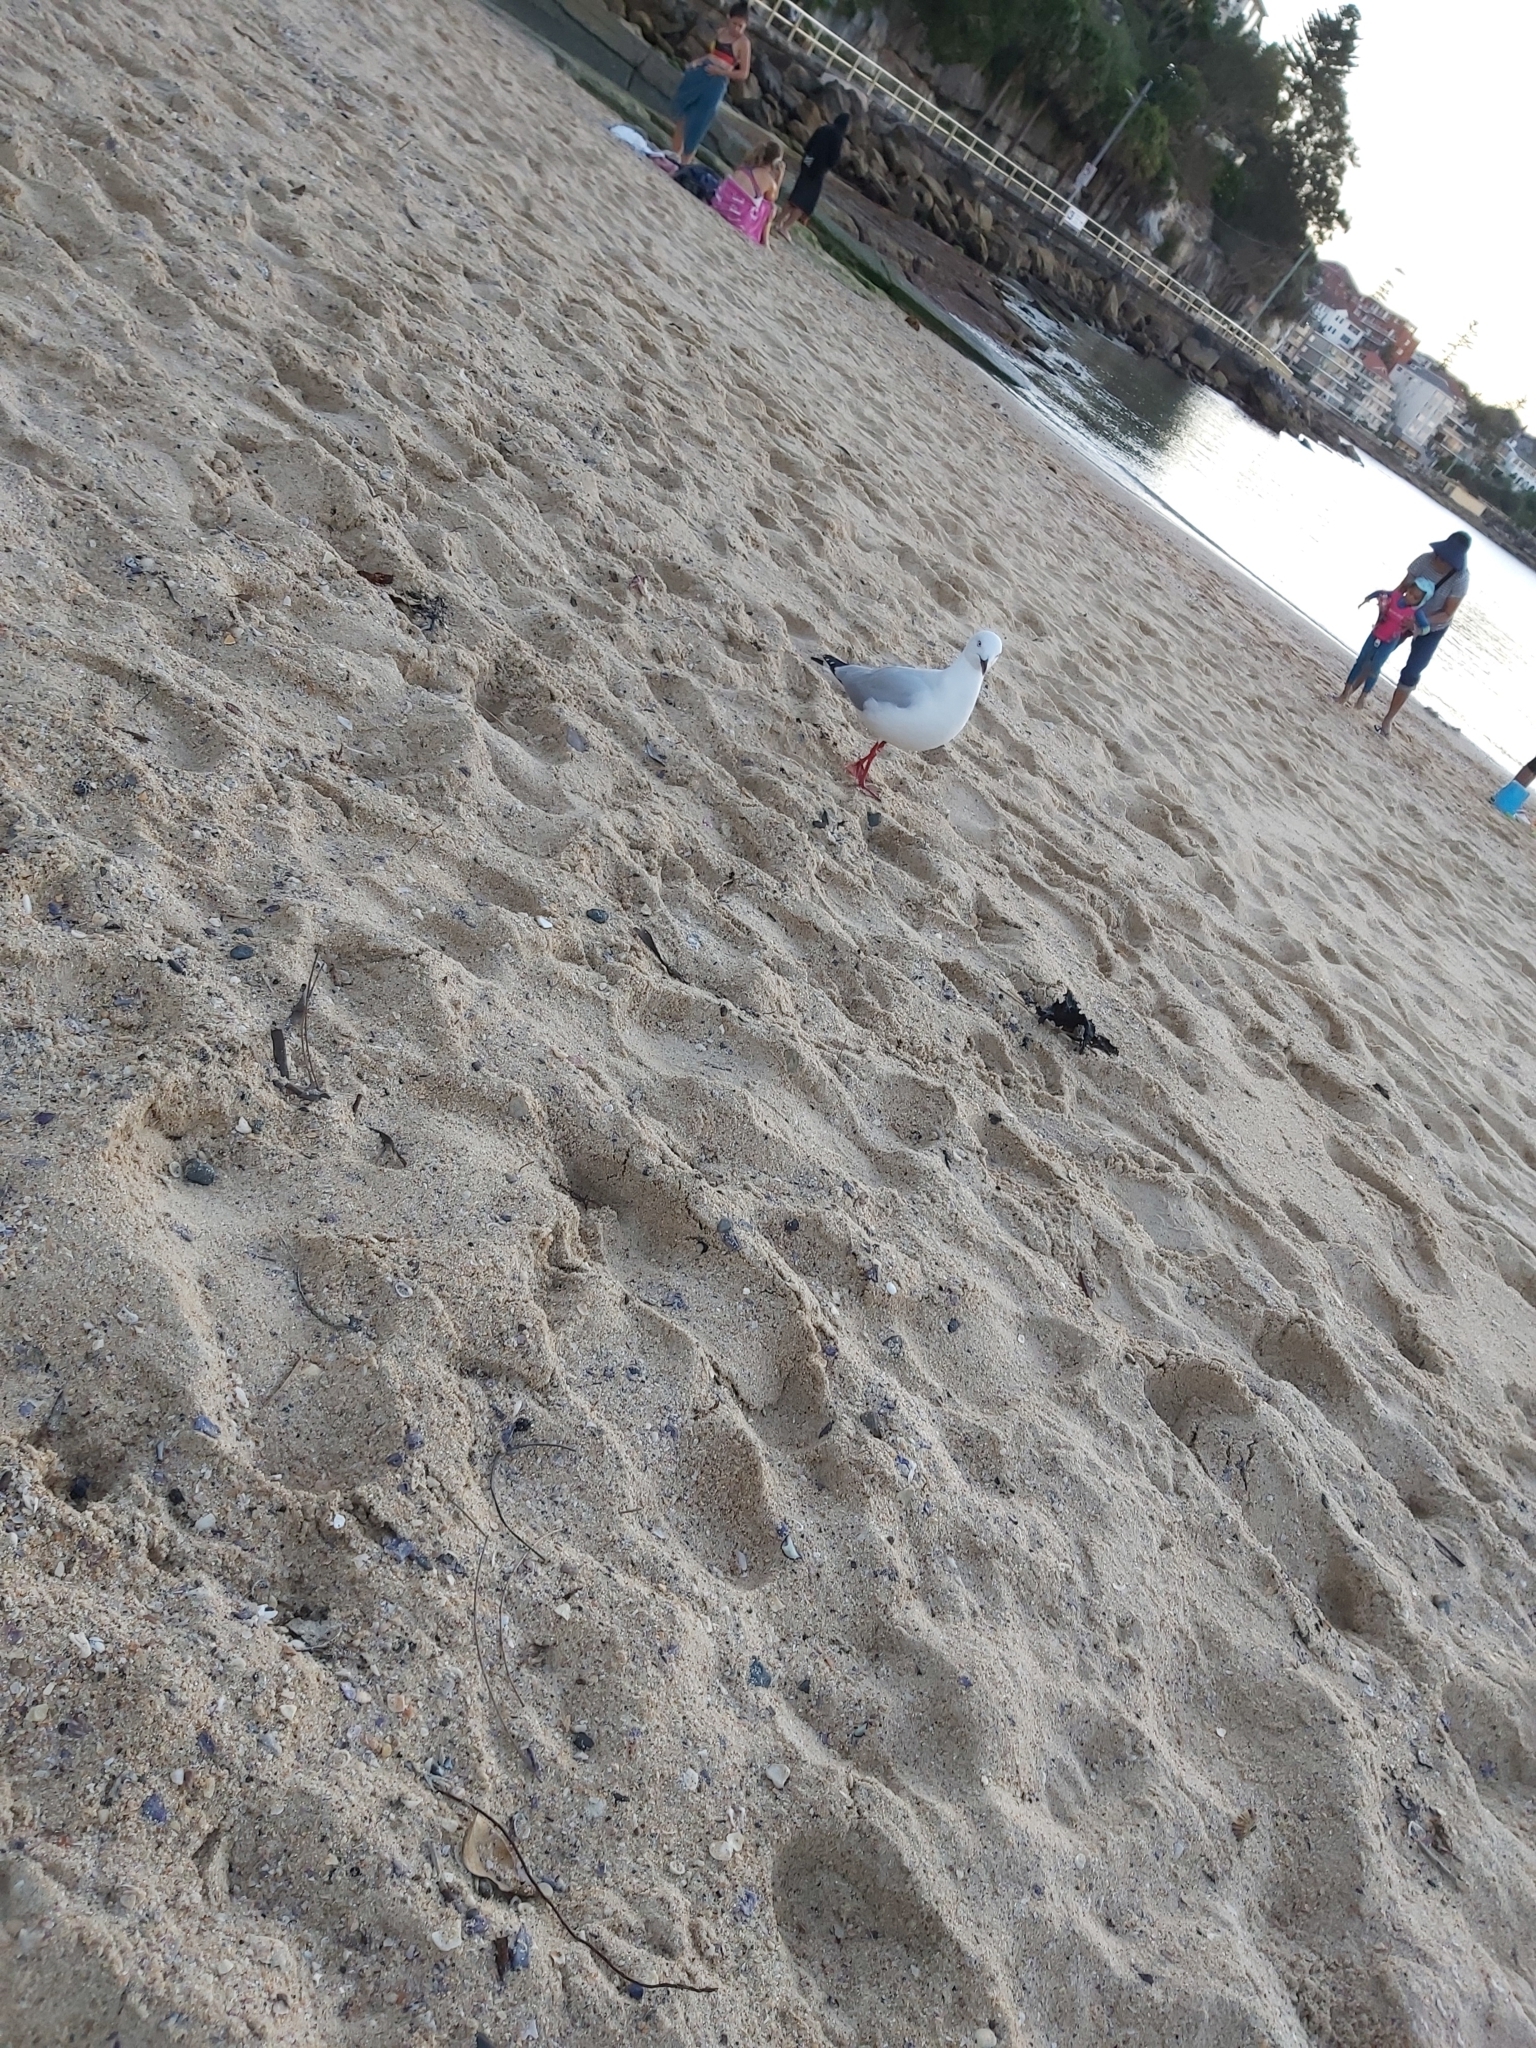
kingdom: Animalia
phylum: Chordata
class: Aves
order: Charadriiformes
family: Laridae
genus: Chroicocephalus
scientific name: Chroicocephalus novaehollandiae
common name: Silver gull
